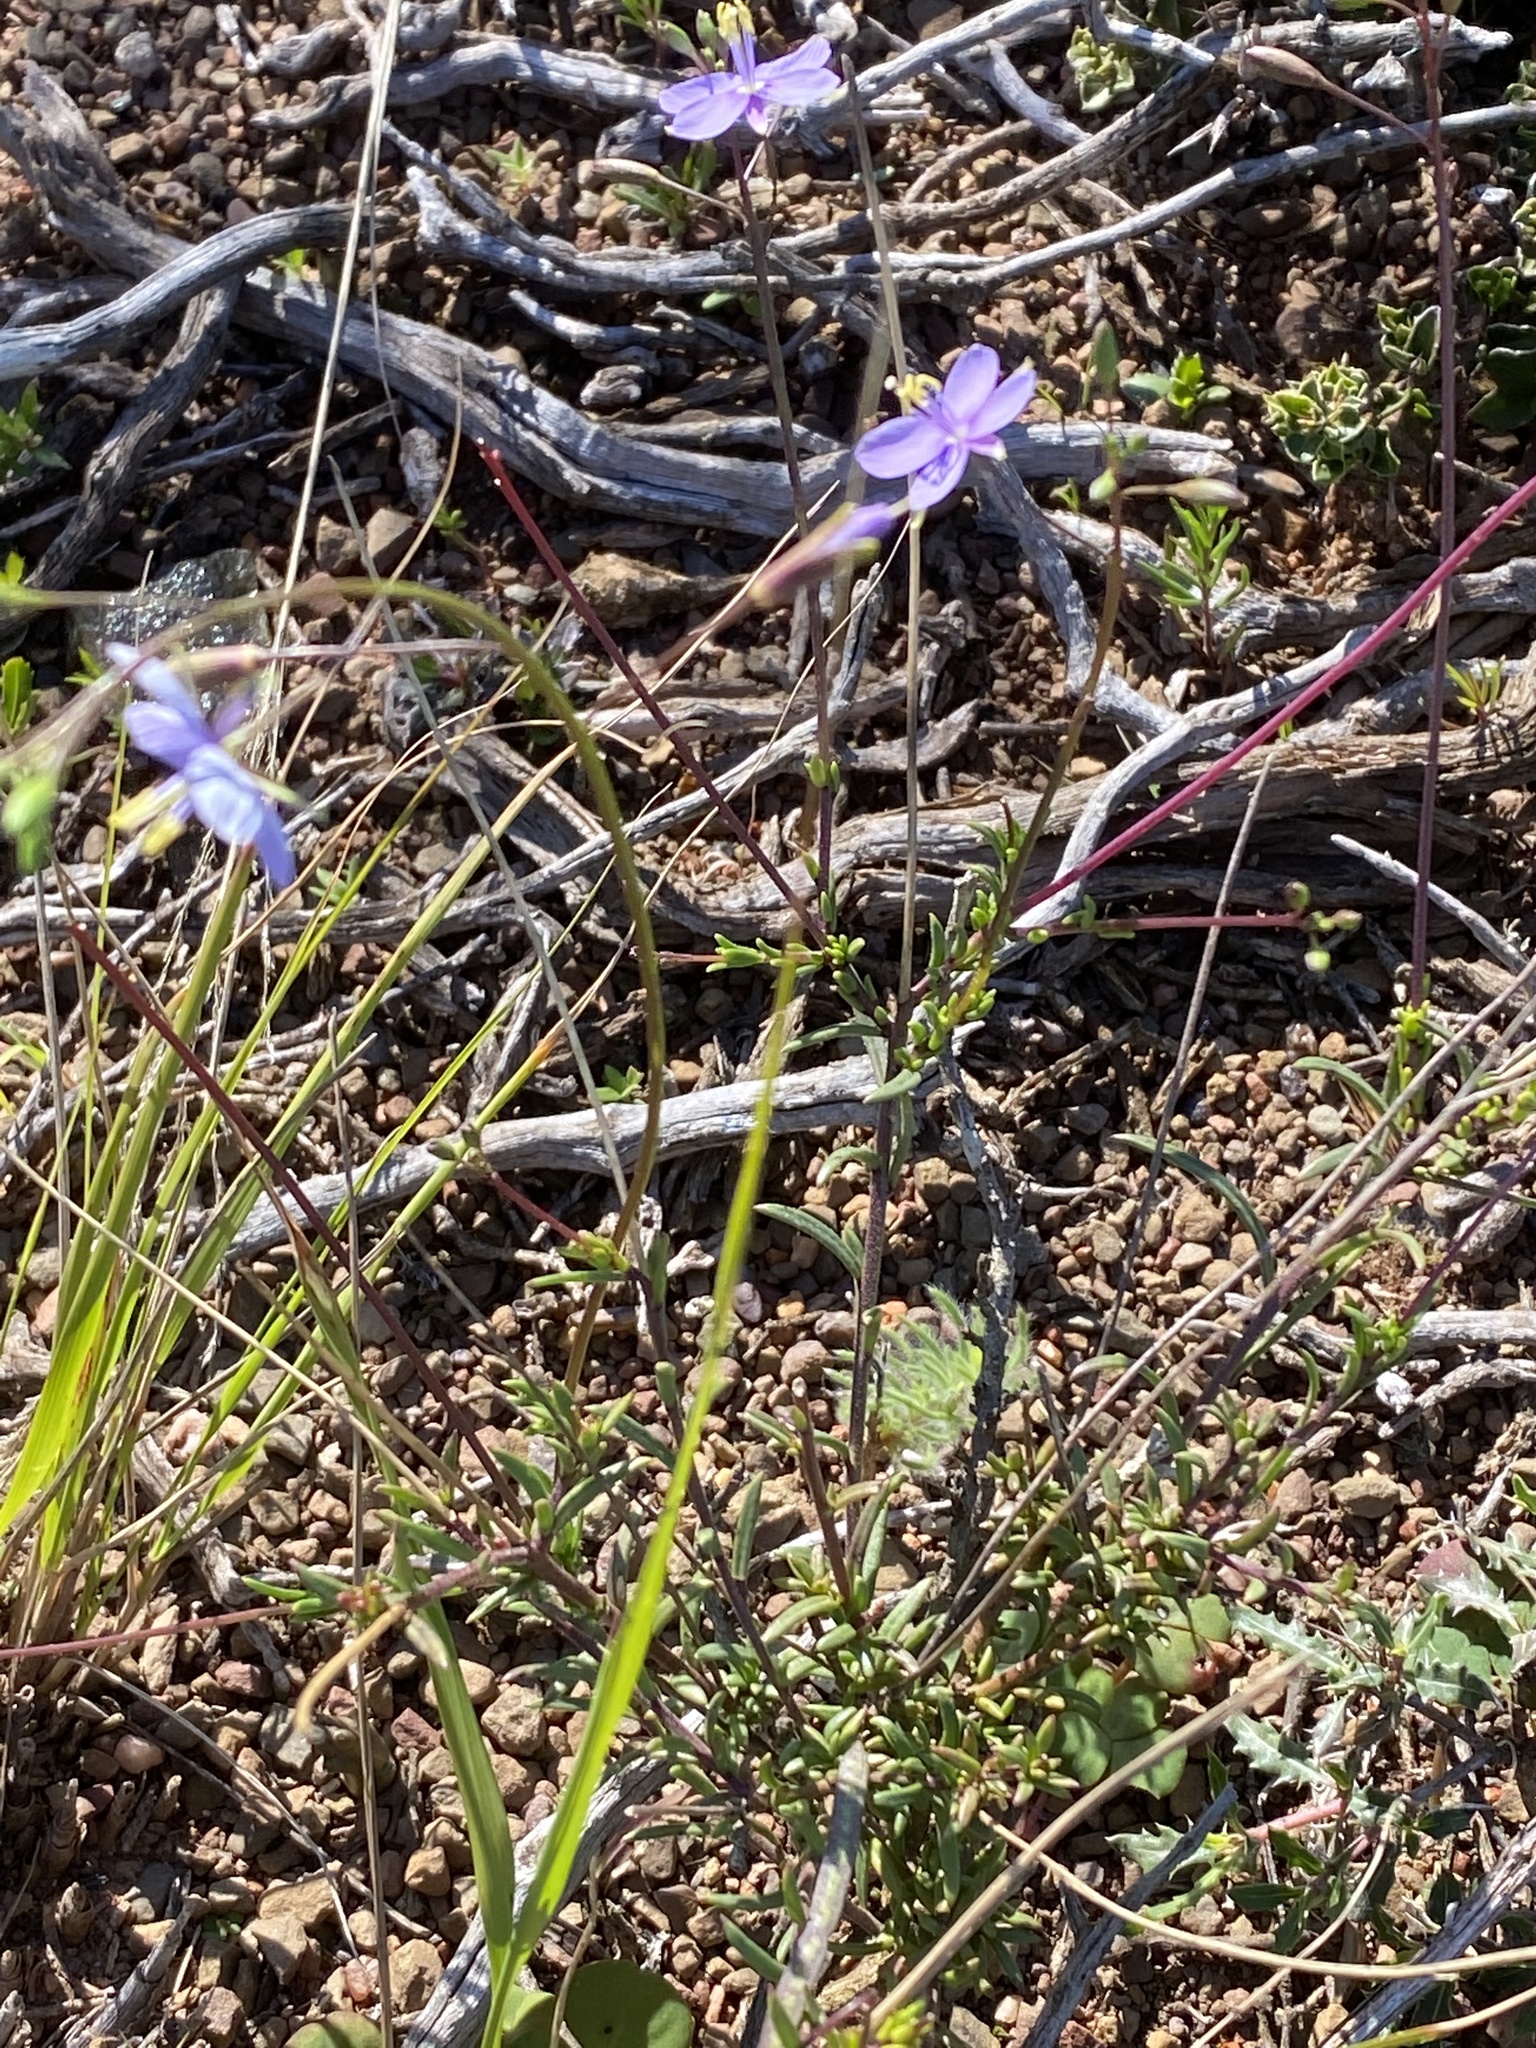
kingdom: Plantae
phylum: Tracheophyta
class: Magnoliopsida
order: Brassicales
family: Brassicaceae
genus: Heliophila
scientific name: Heliophila subulata
